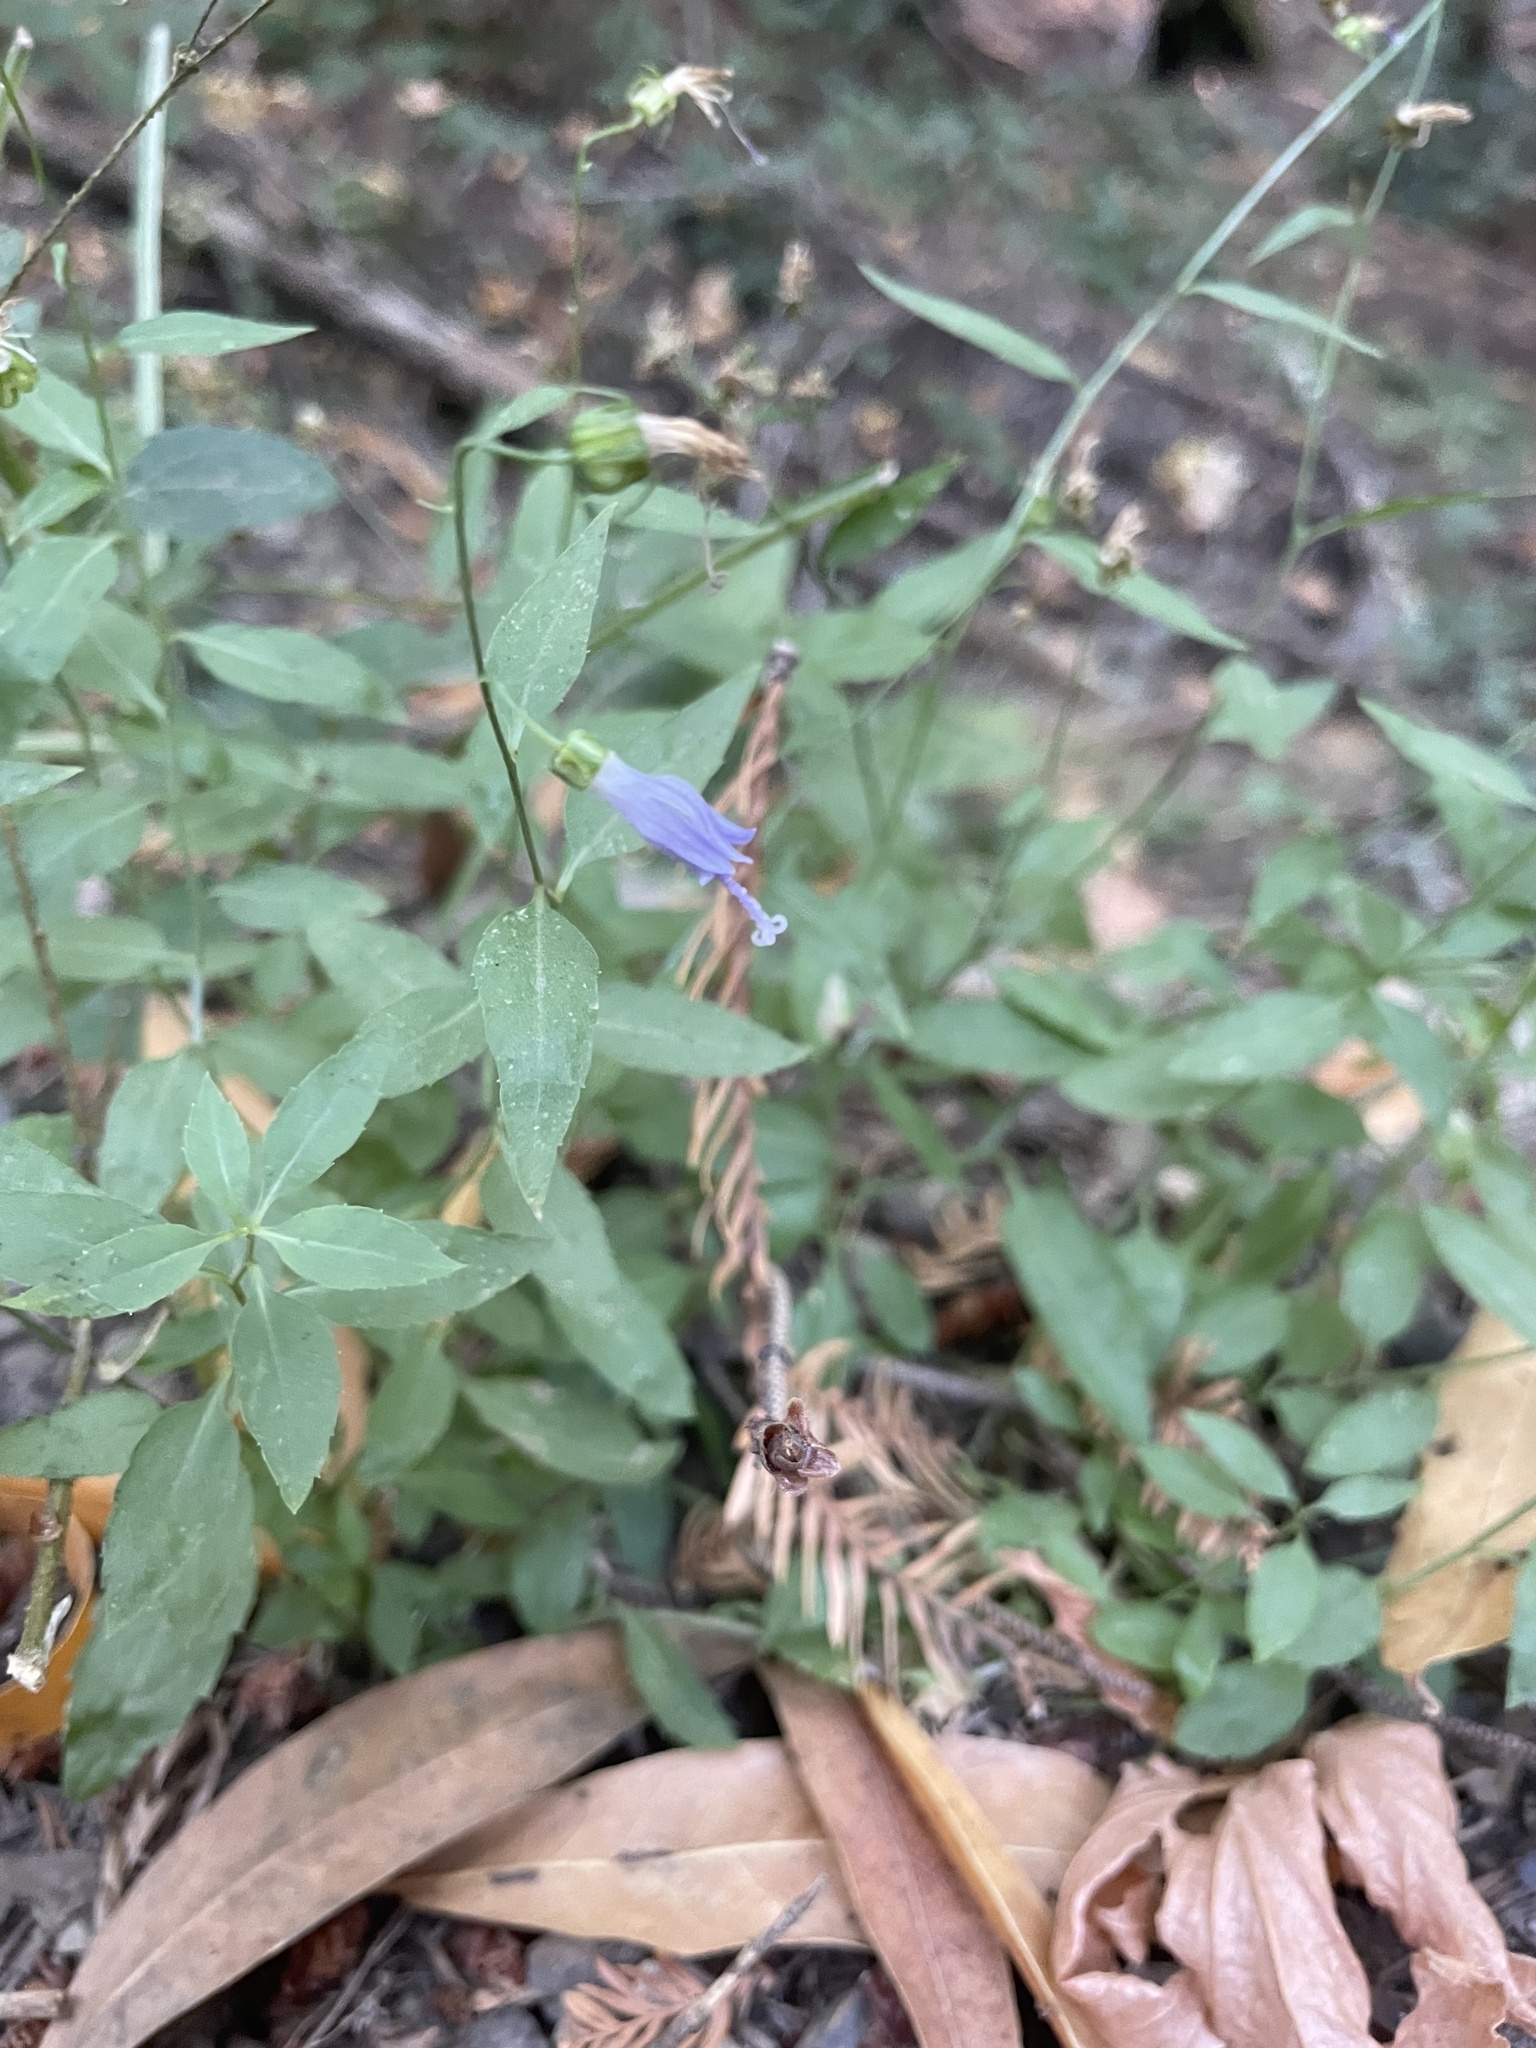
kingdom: Plantae
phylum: Tracheophyta
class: Magnoliopsida
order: Asterales
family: Campanulaceae
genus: Smithiastrum
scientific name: Smithiastrum prenanthoides
